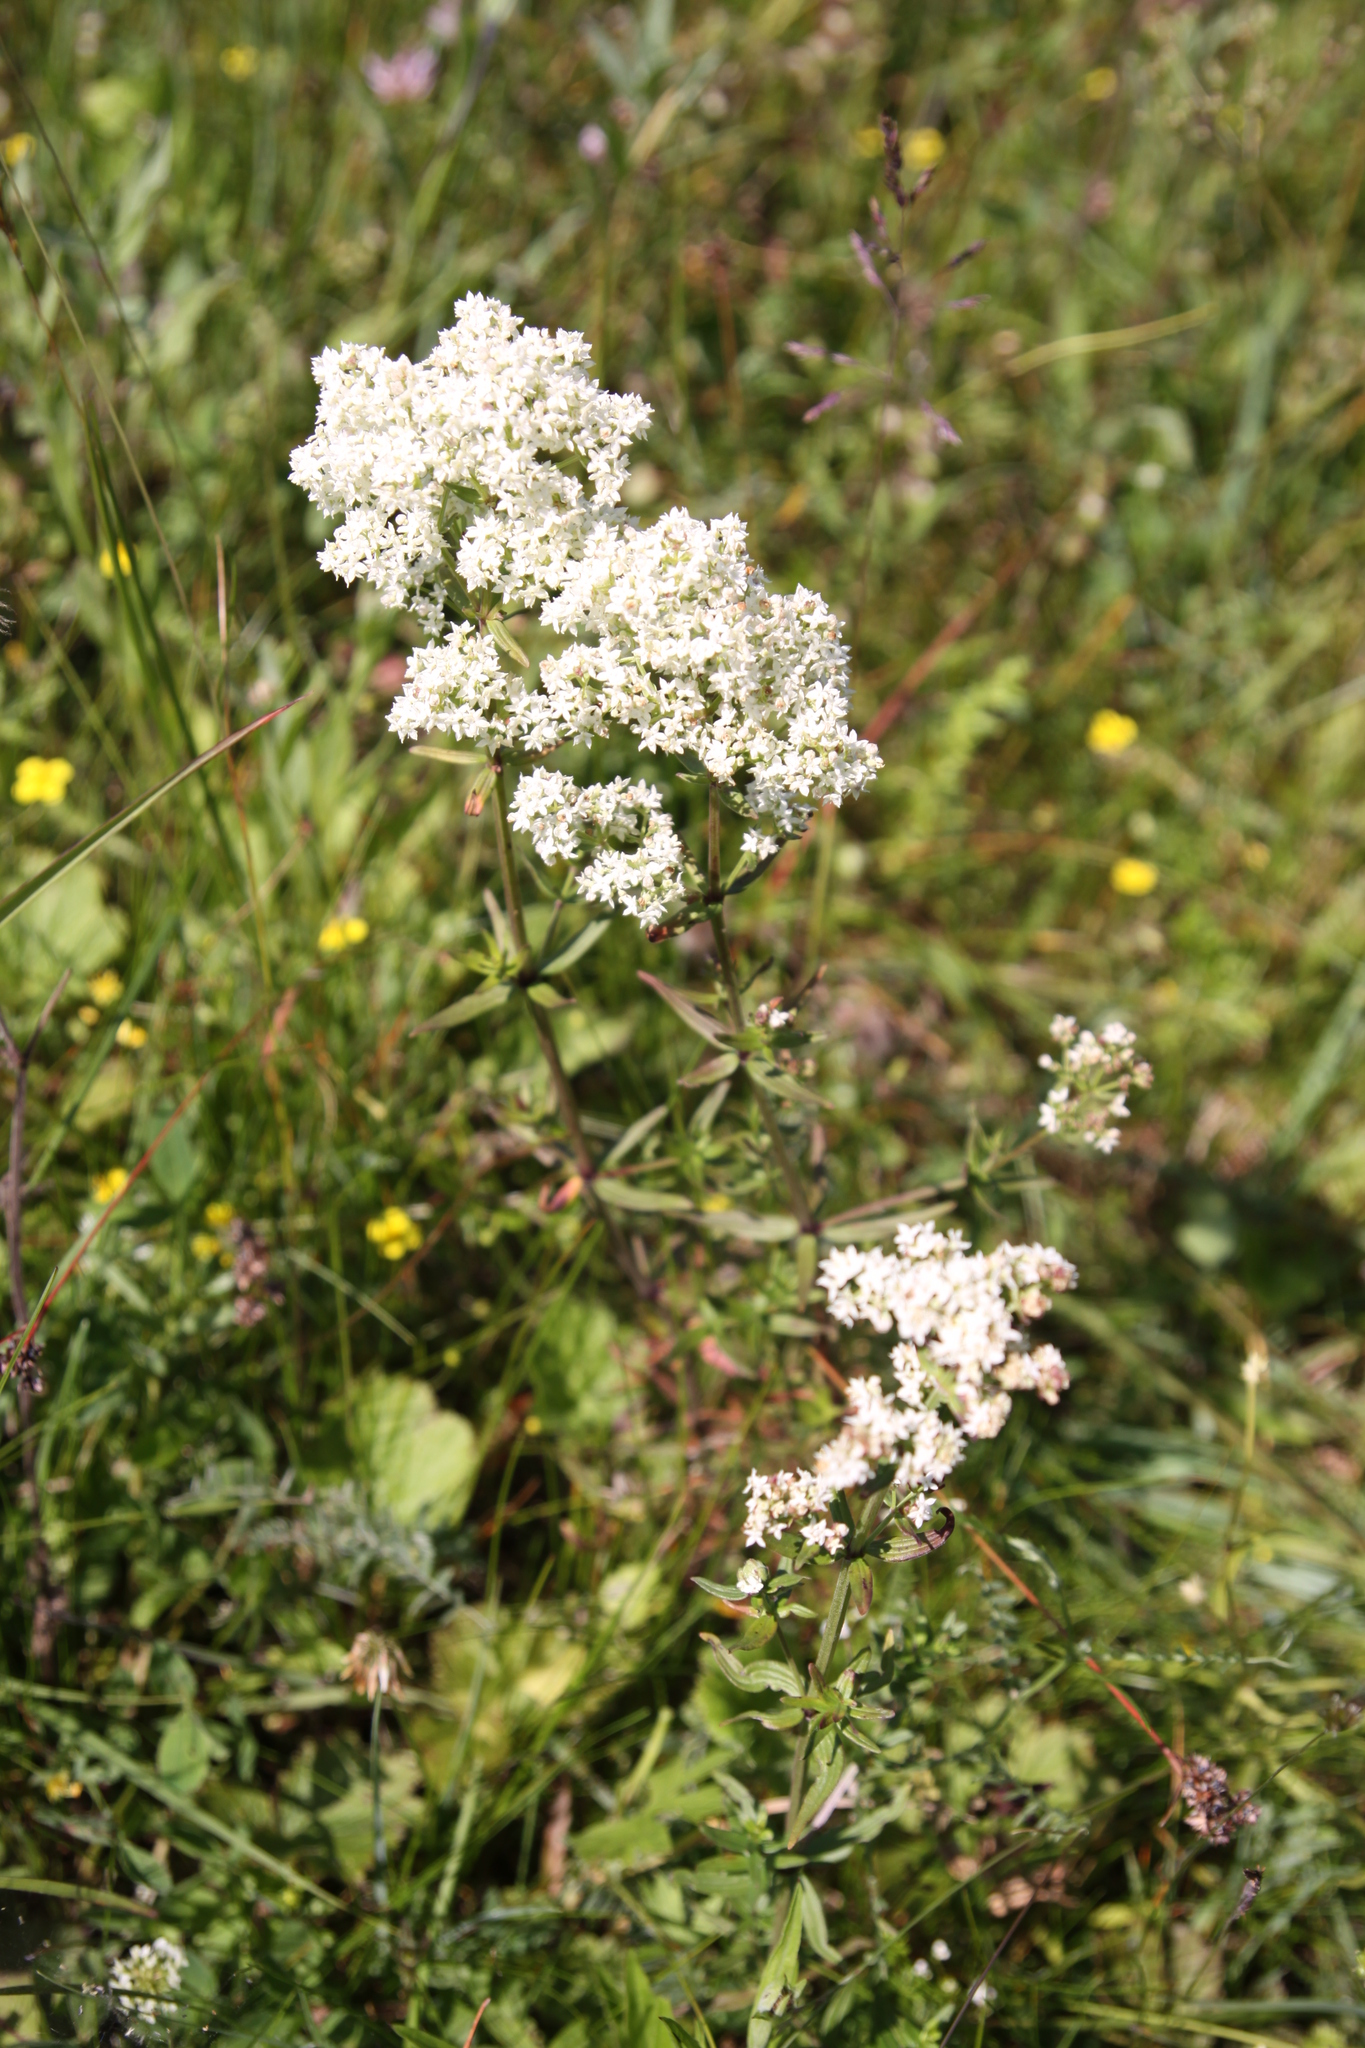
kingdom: Plantae
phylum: Tracheophyta
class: Magnoliopsida
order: Gentianales
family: Rubiaceae
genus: Galium
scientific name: Galium boreale
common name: Northern bedstraw
